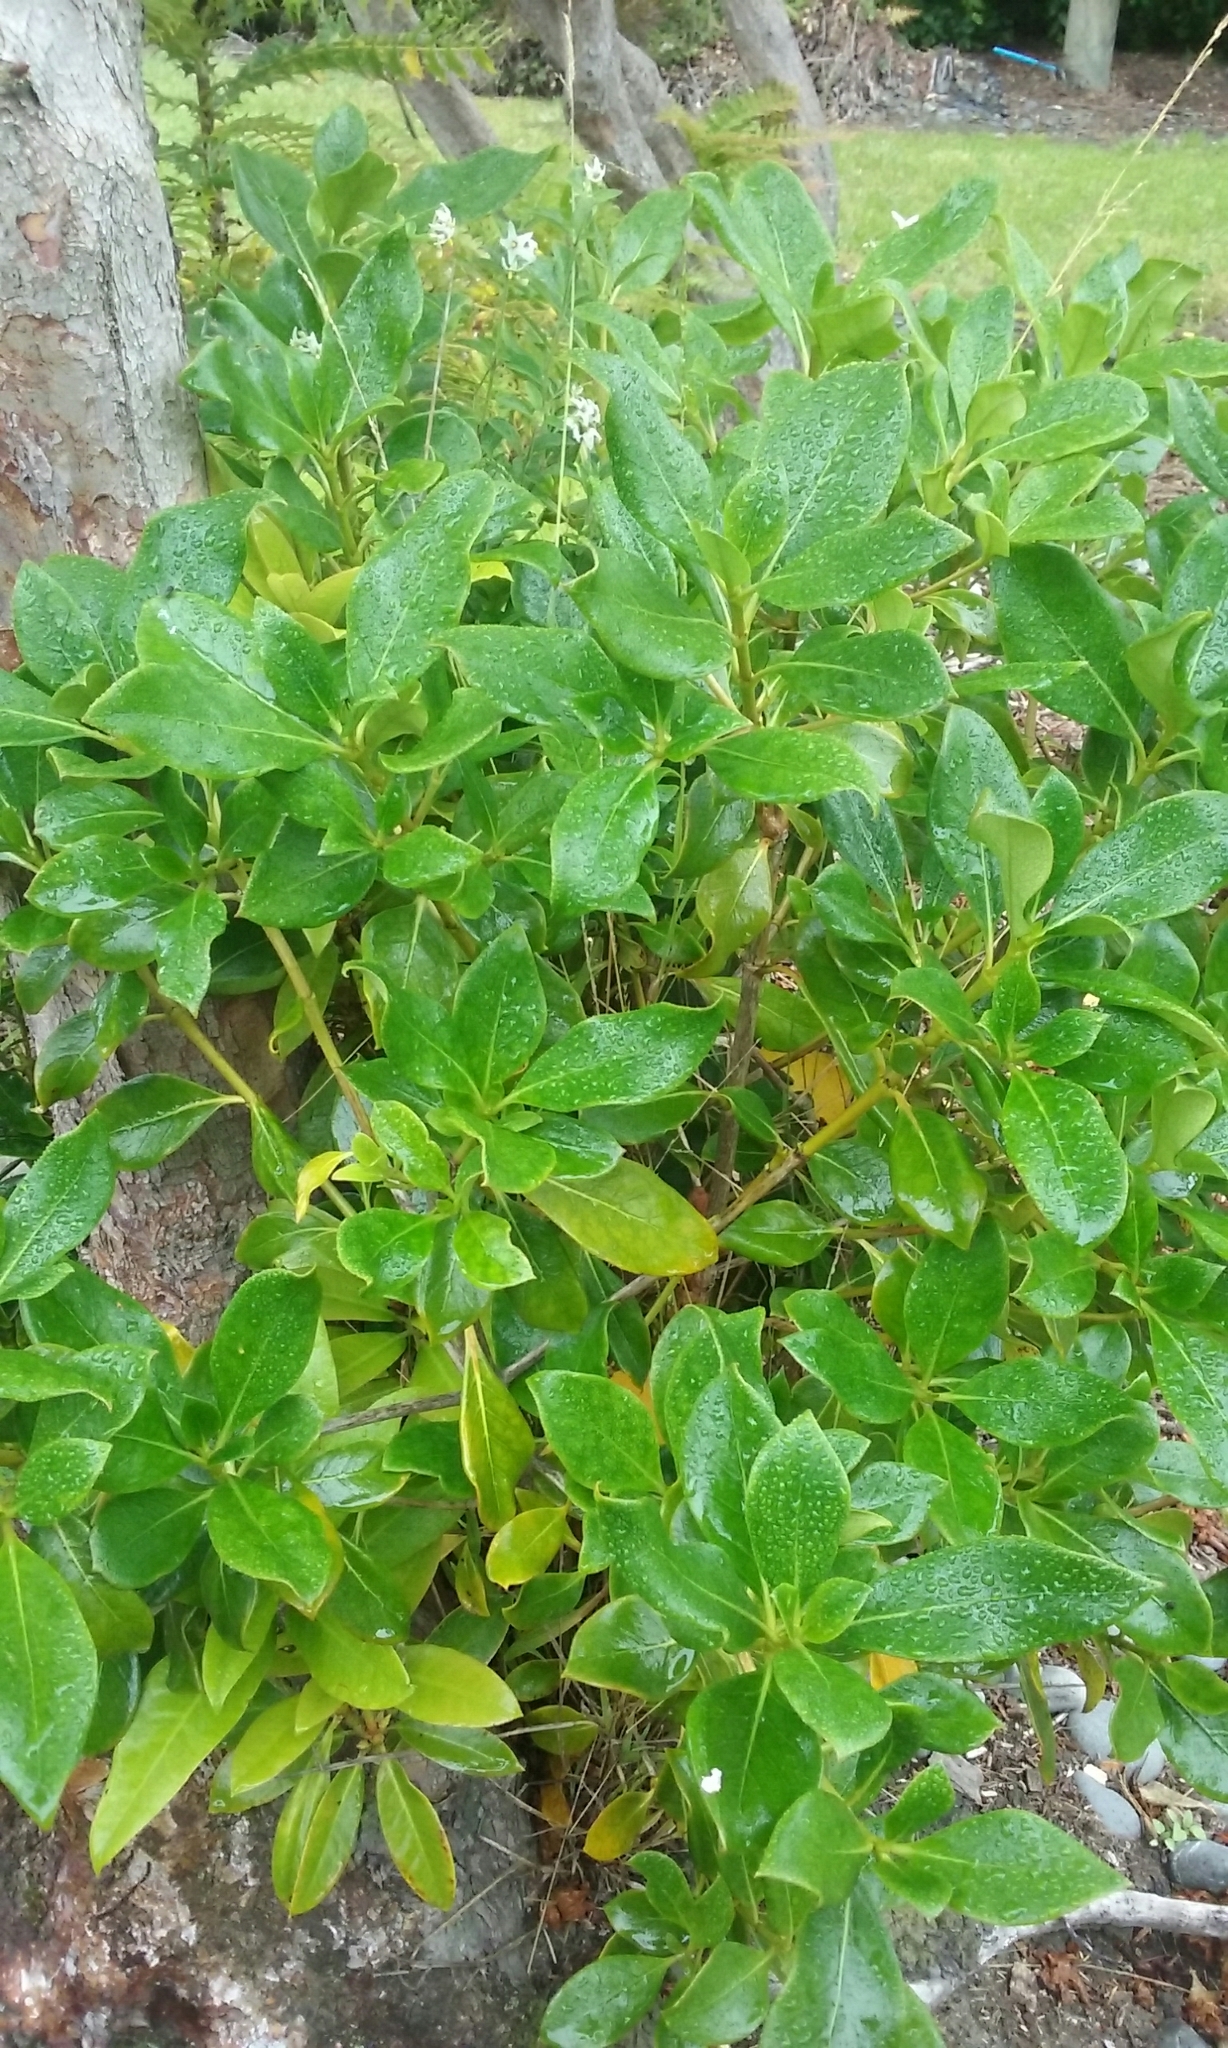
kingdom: Plantae
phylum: Tracheophyta
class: Magnoliopsida
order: Gentianales
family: Rubiaceae
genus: Coprosma
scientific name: Coprosma lucida
